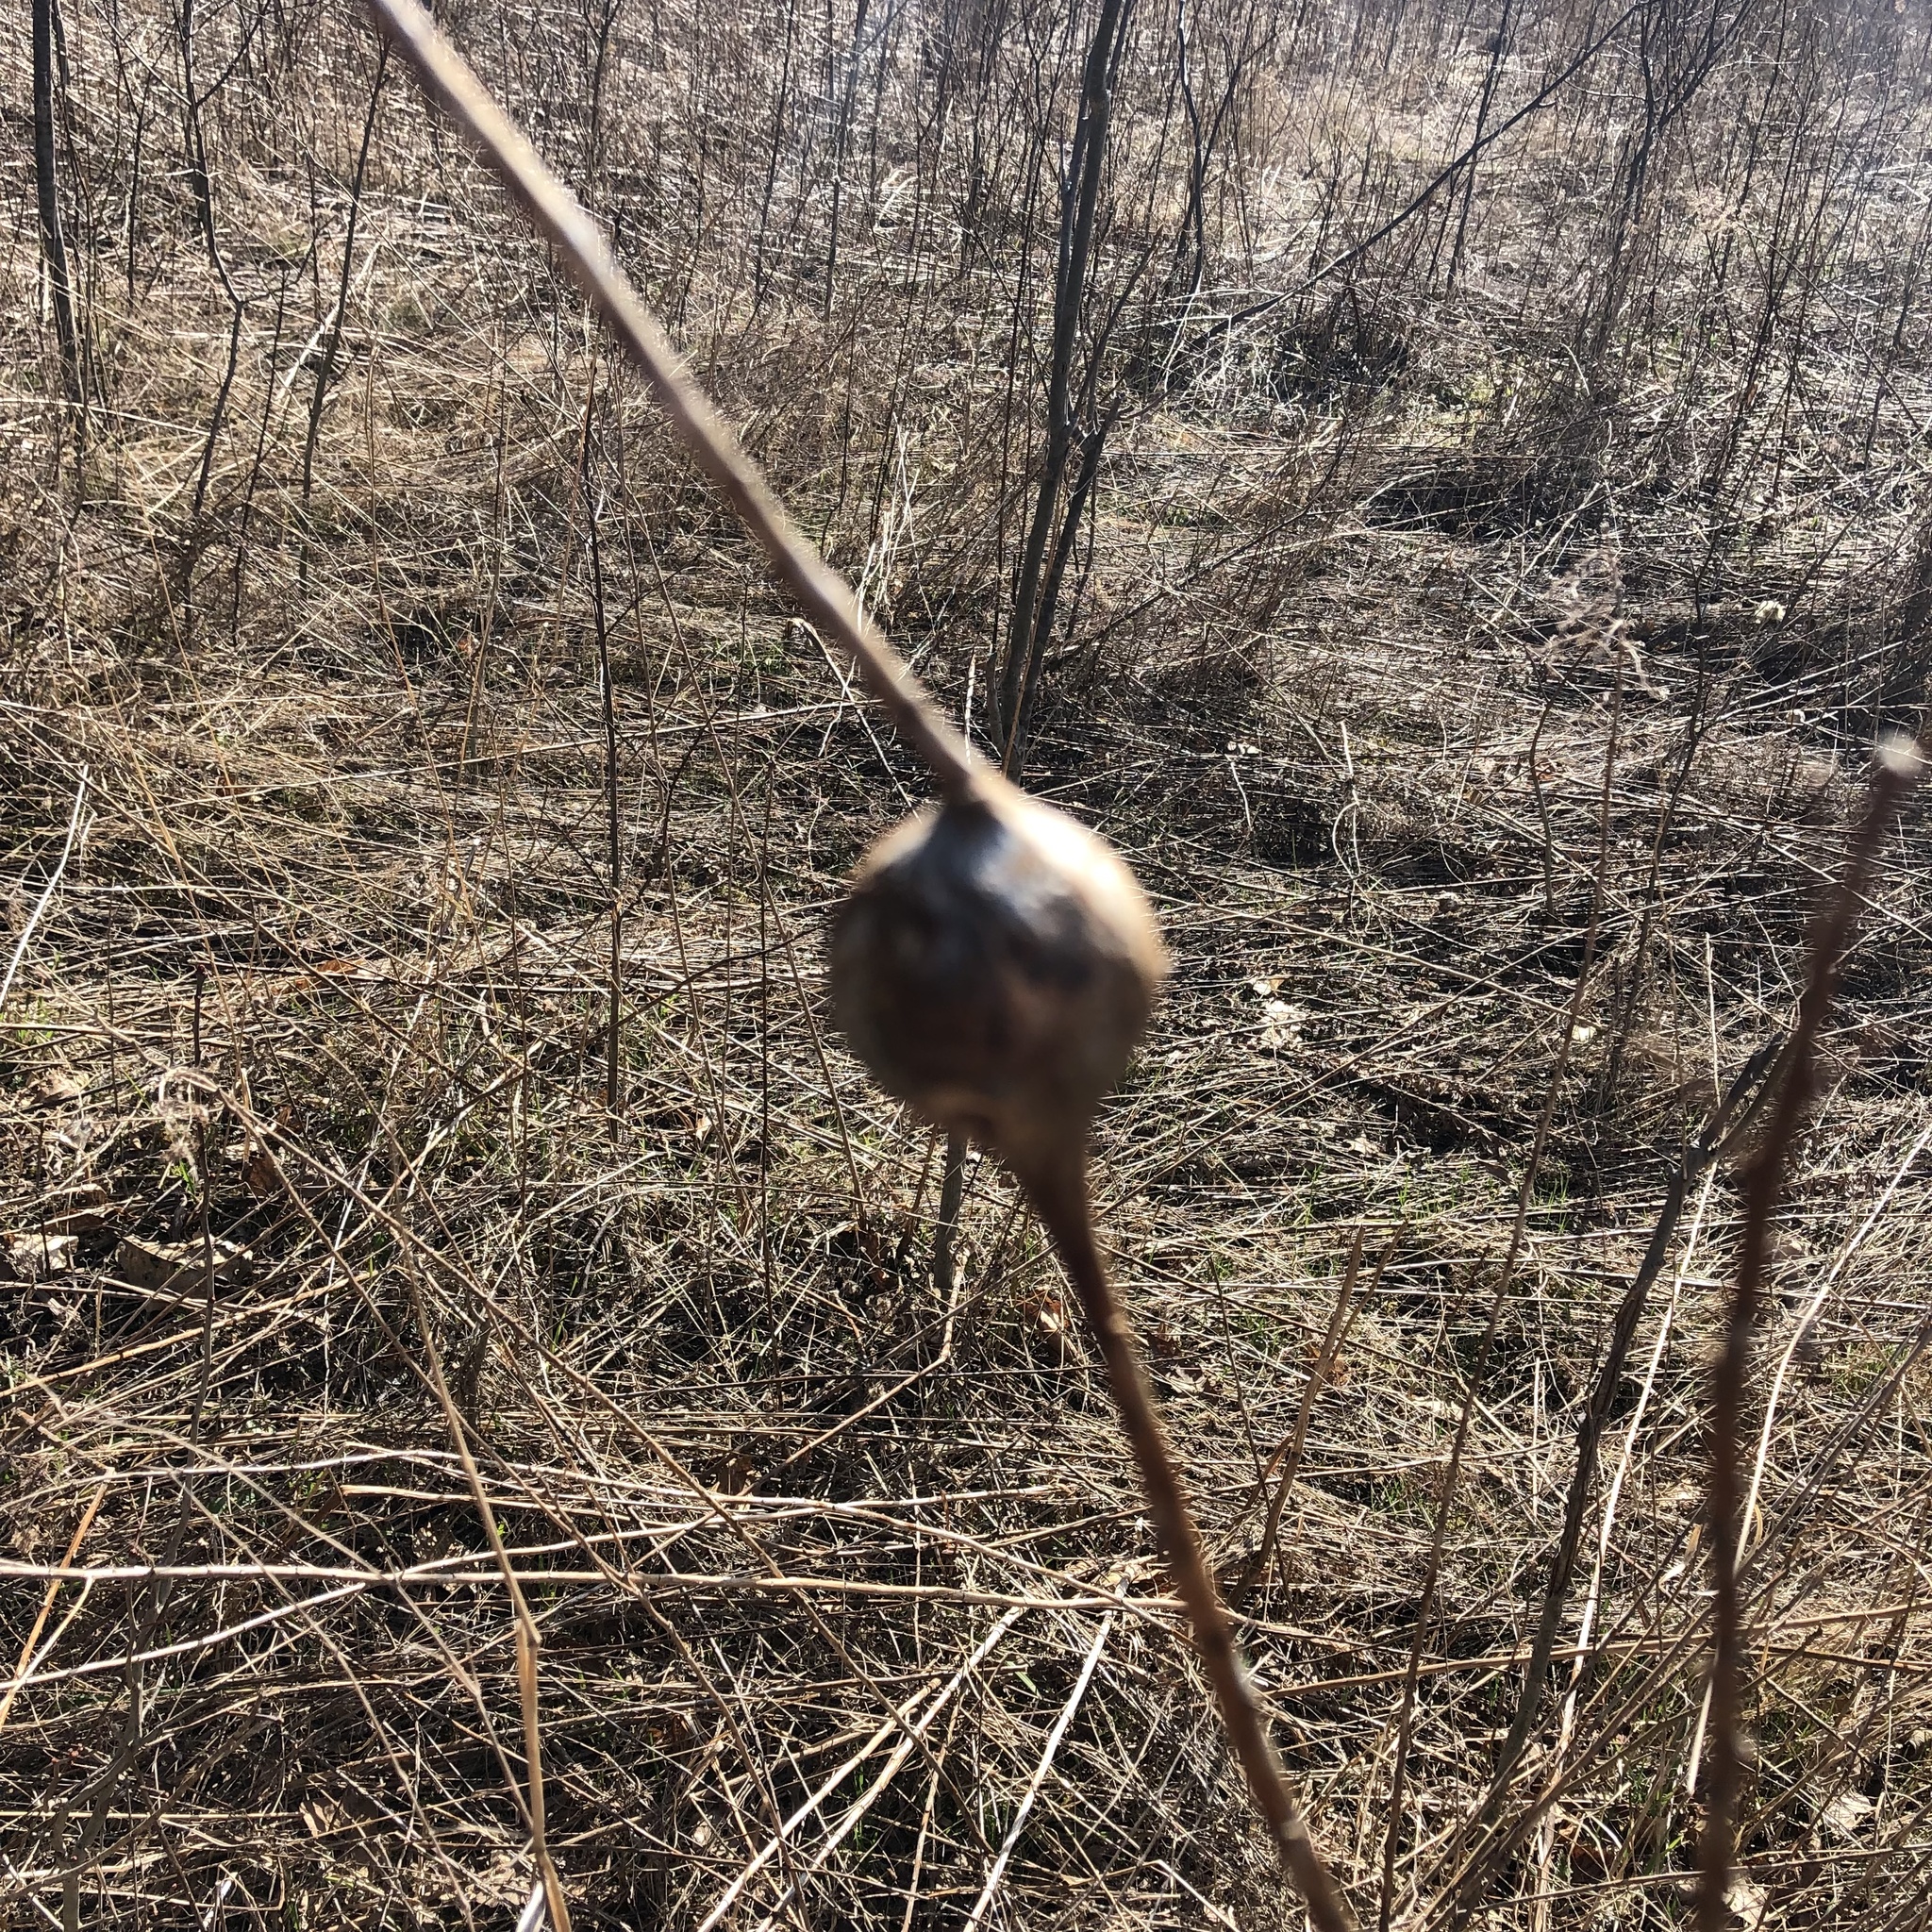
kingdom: Animalia
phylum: Arthropoda
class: Insecta
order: Diptera
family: Tephritidae
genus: Eurosta
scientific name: Eurosta solidaginis
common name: Goldenrod gall fly
